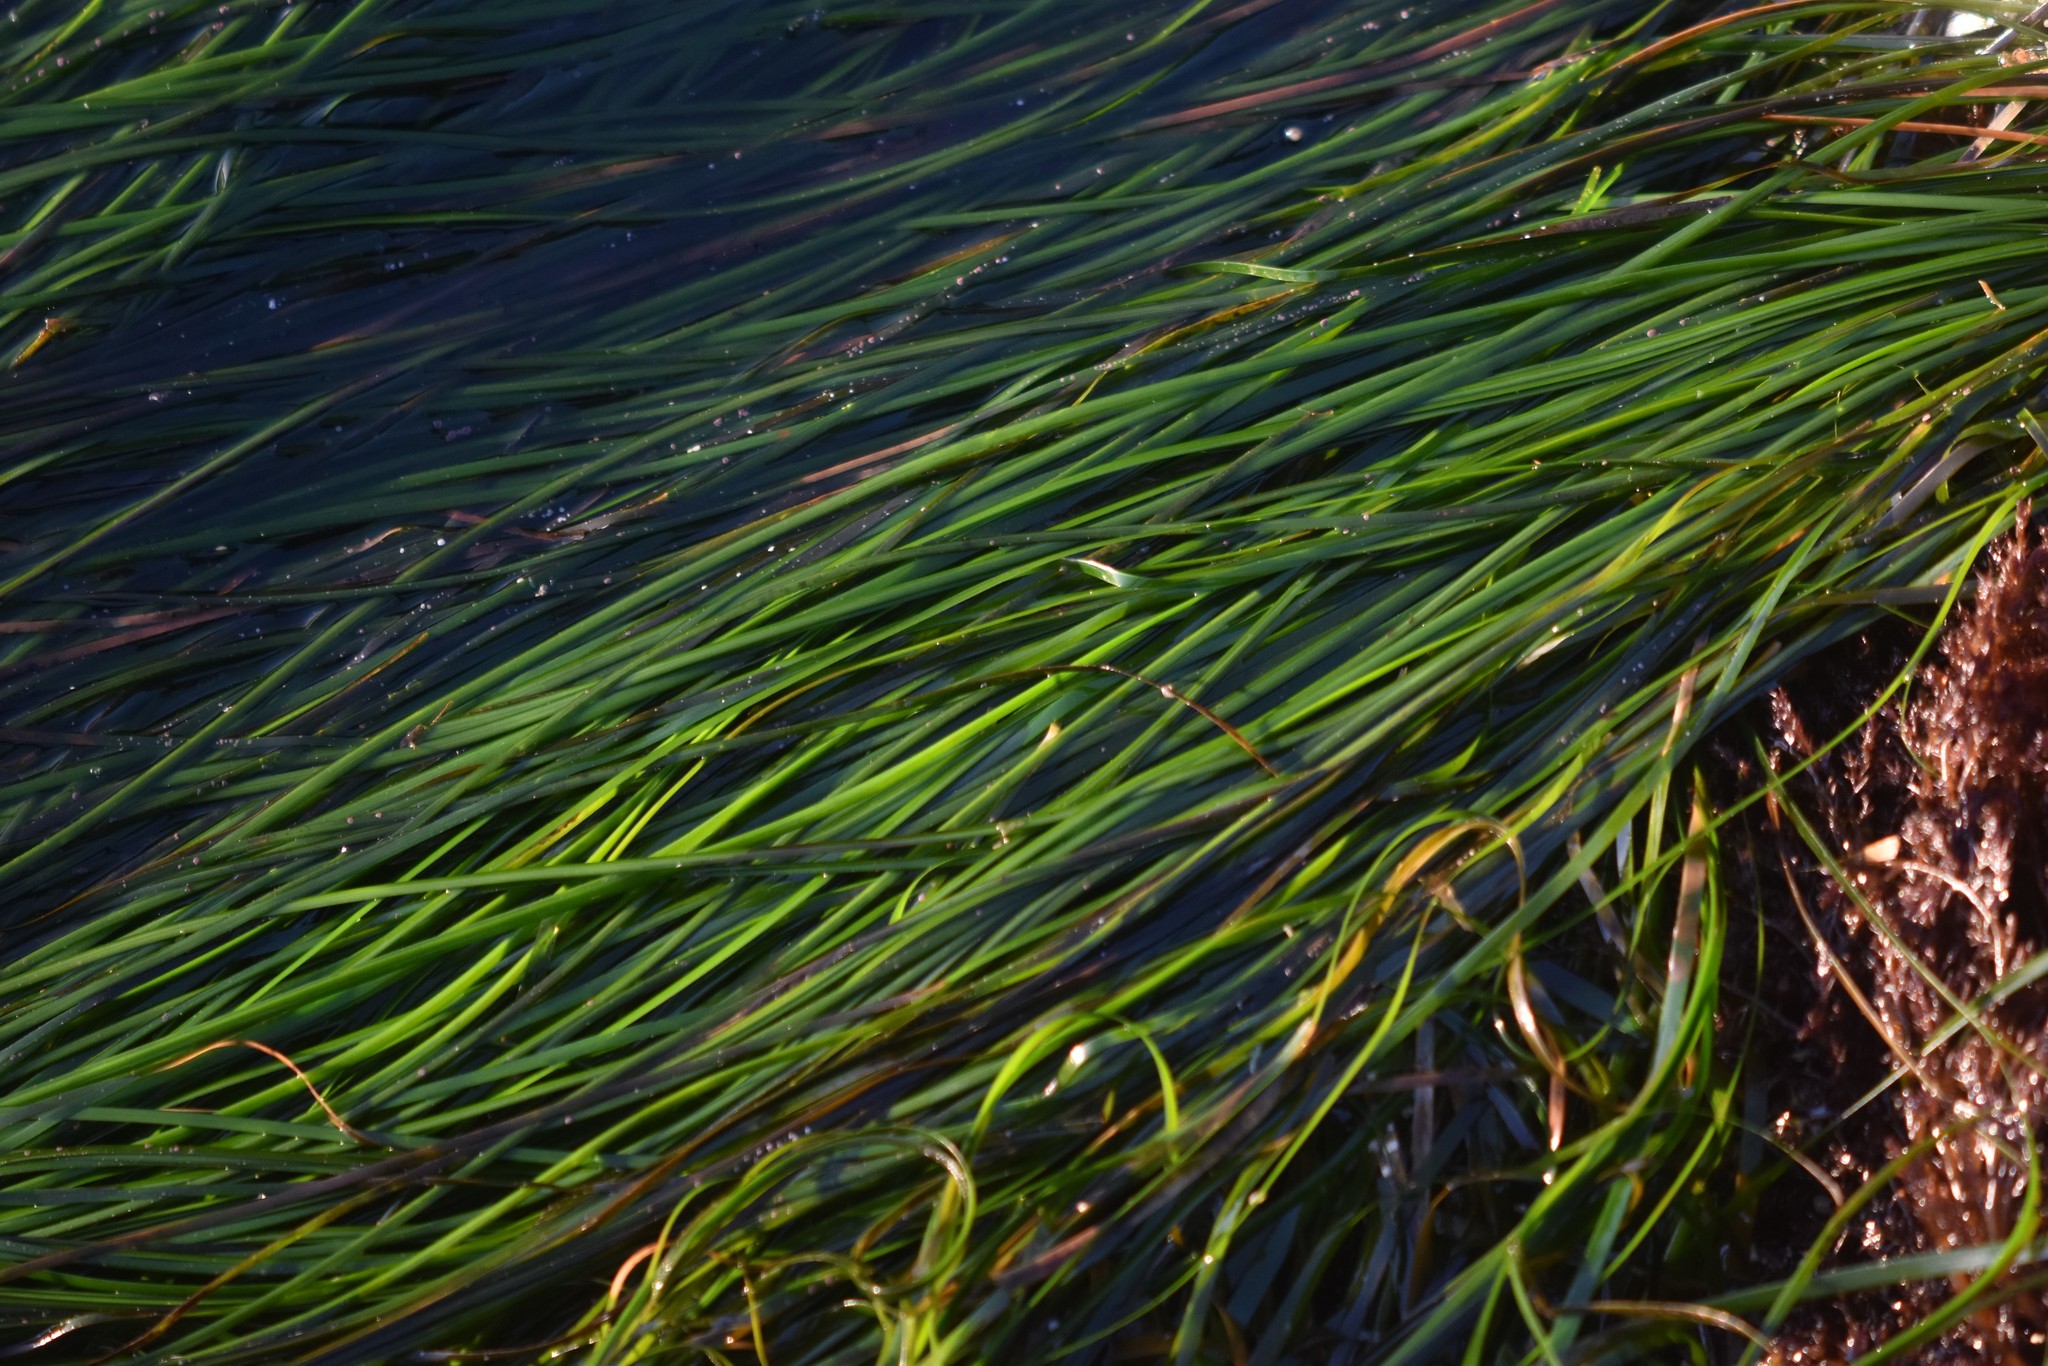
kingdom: Plantae
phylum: Tracheophyta
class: Liliopsida
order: Alismatales
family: Zosteraceae
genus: Phyllospadix
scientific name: Phyllospadix scouleri
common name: Species code: ps
